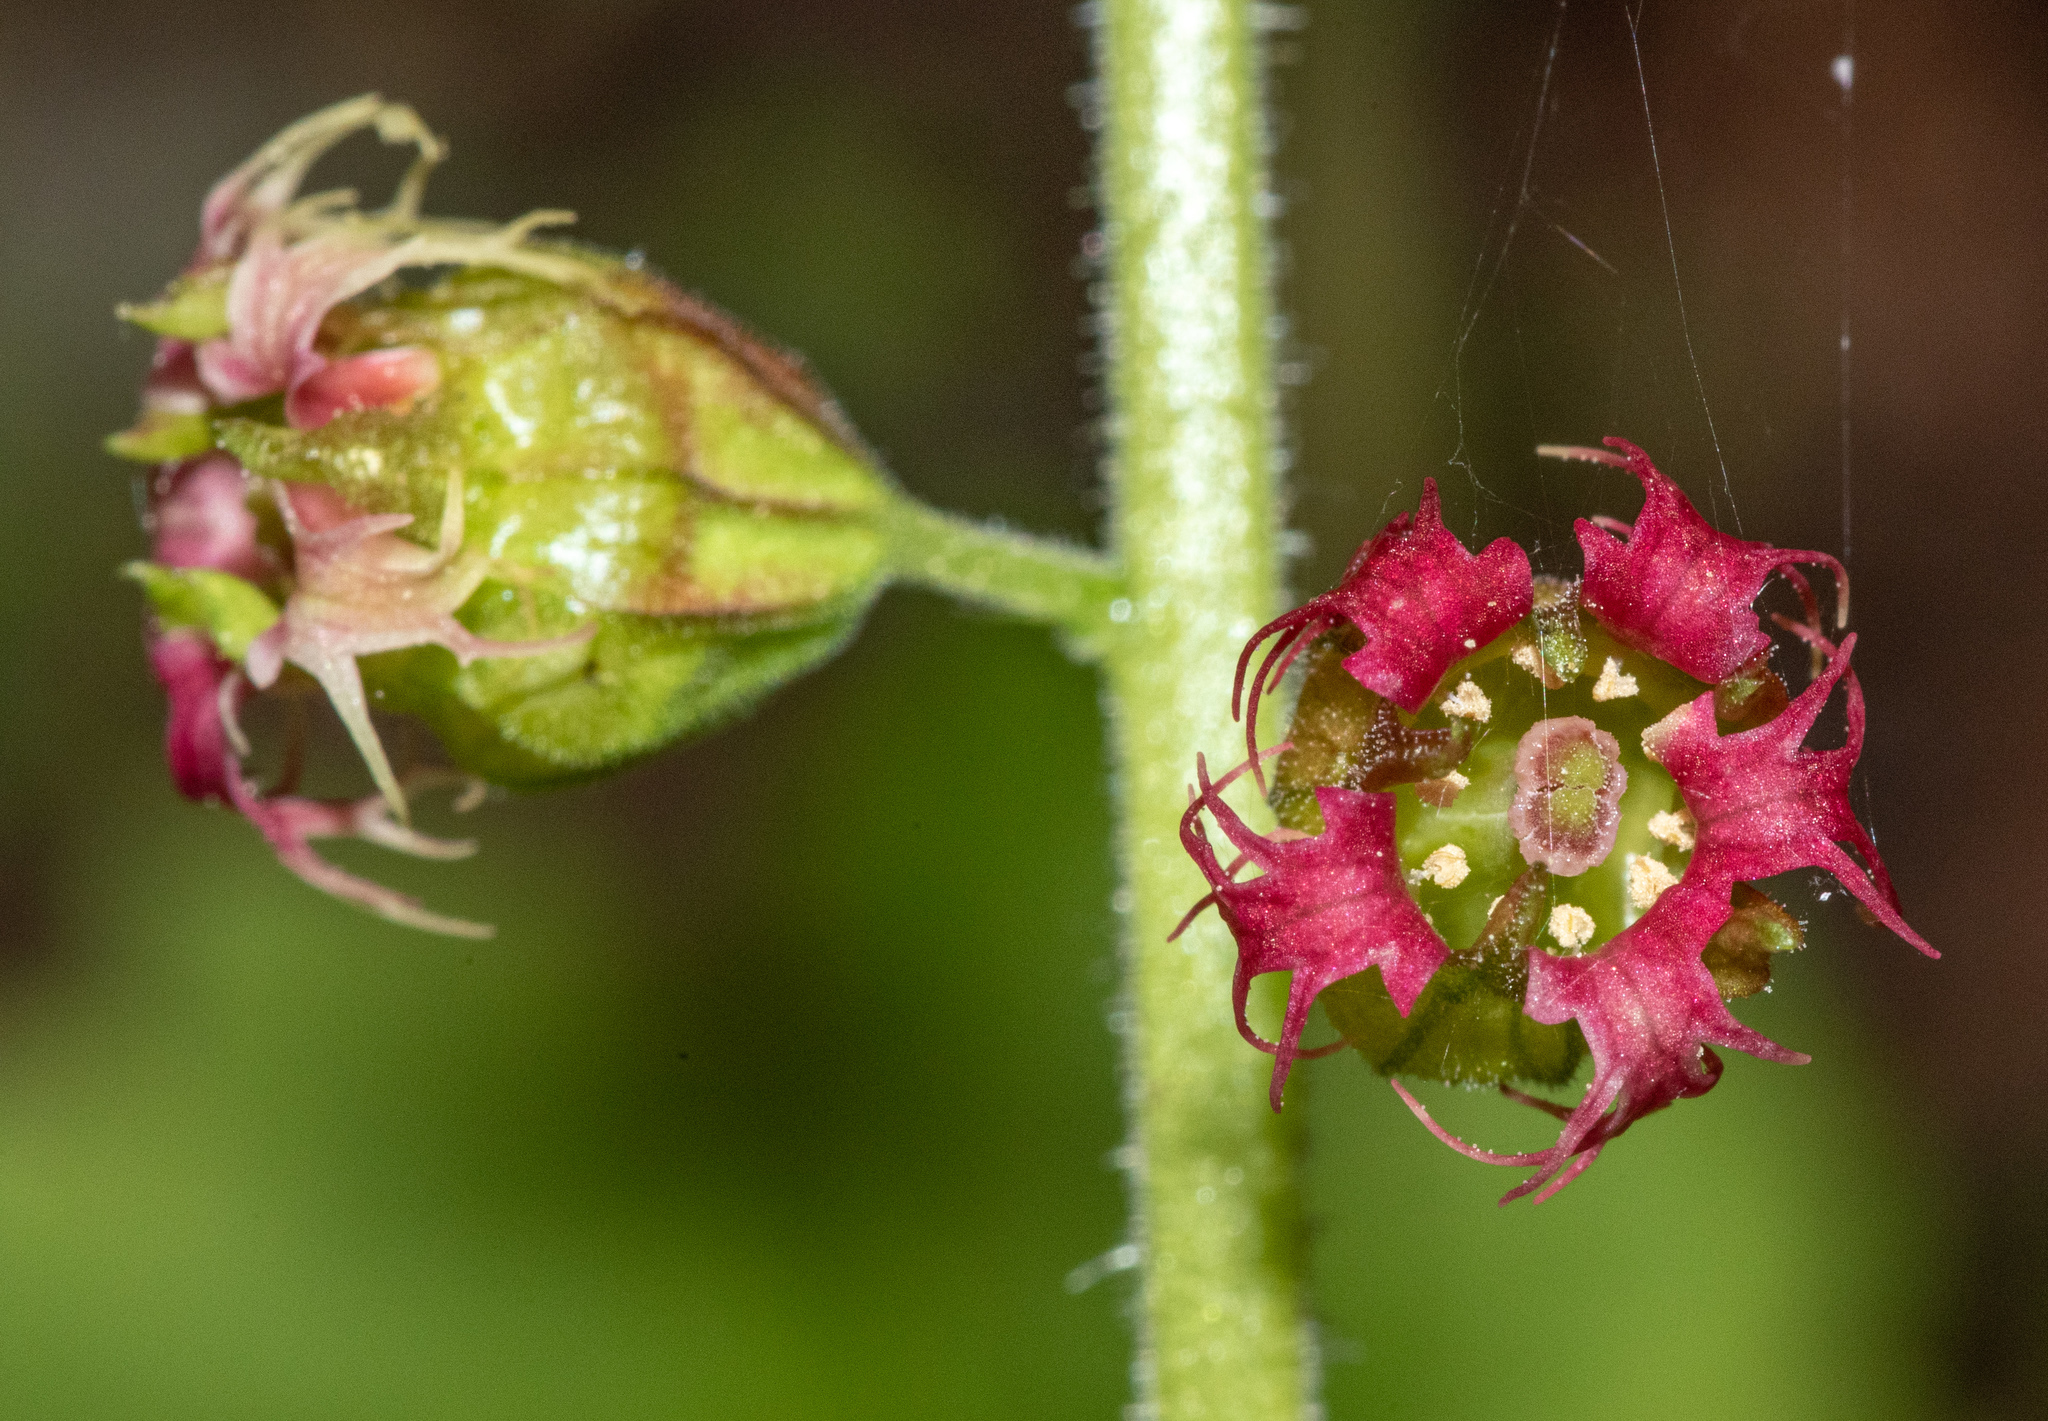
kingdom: Plantae
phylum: Tracheophyta
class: Magnoliopsida
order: Saxifragales
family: Saxifragaceae
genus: Tellima
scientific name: Tellima grandiflora
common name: Fringecups
